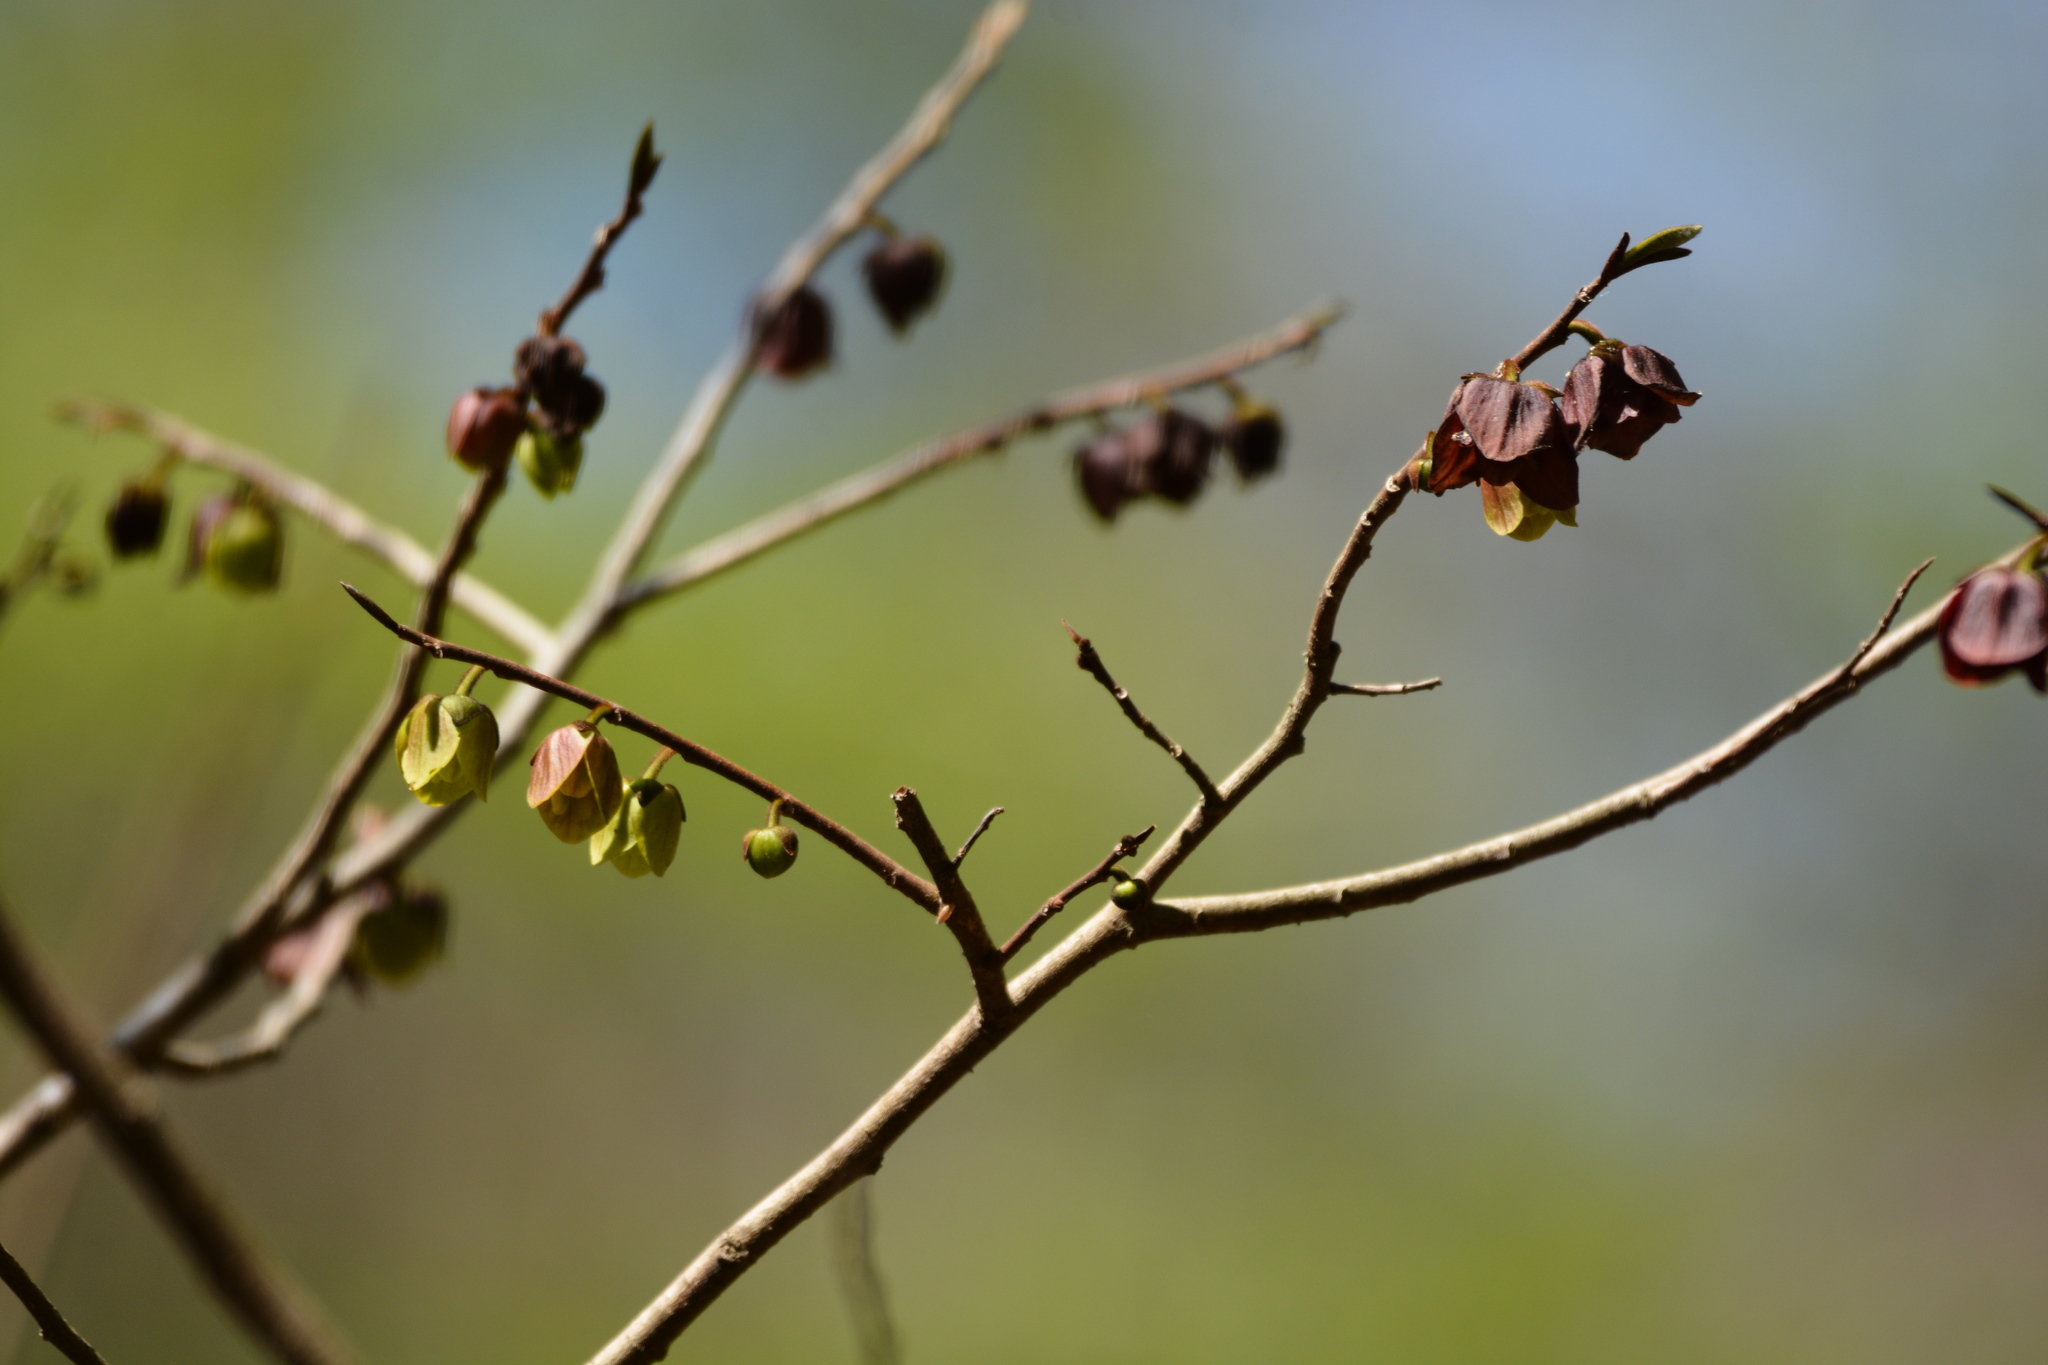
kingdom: Plantae
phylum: Tracheophyta
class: Magnoliopsida
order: Magnoliales
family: Annonaceae
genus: Asimina
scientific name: Asimina triloba
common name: Dog-banana
